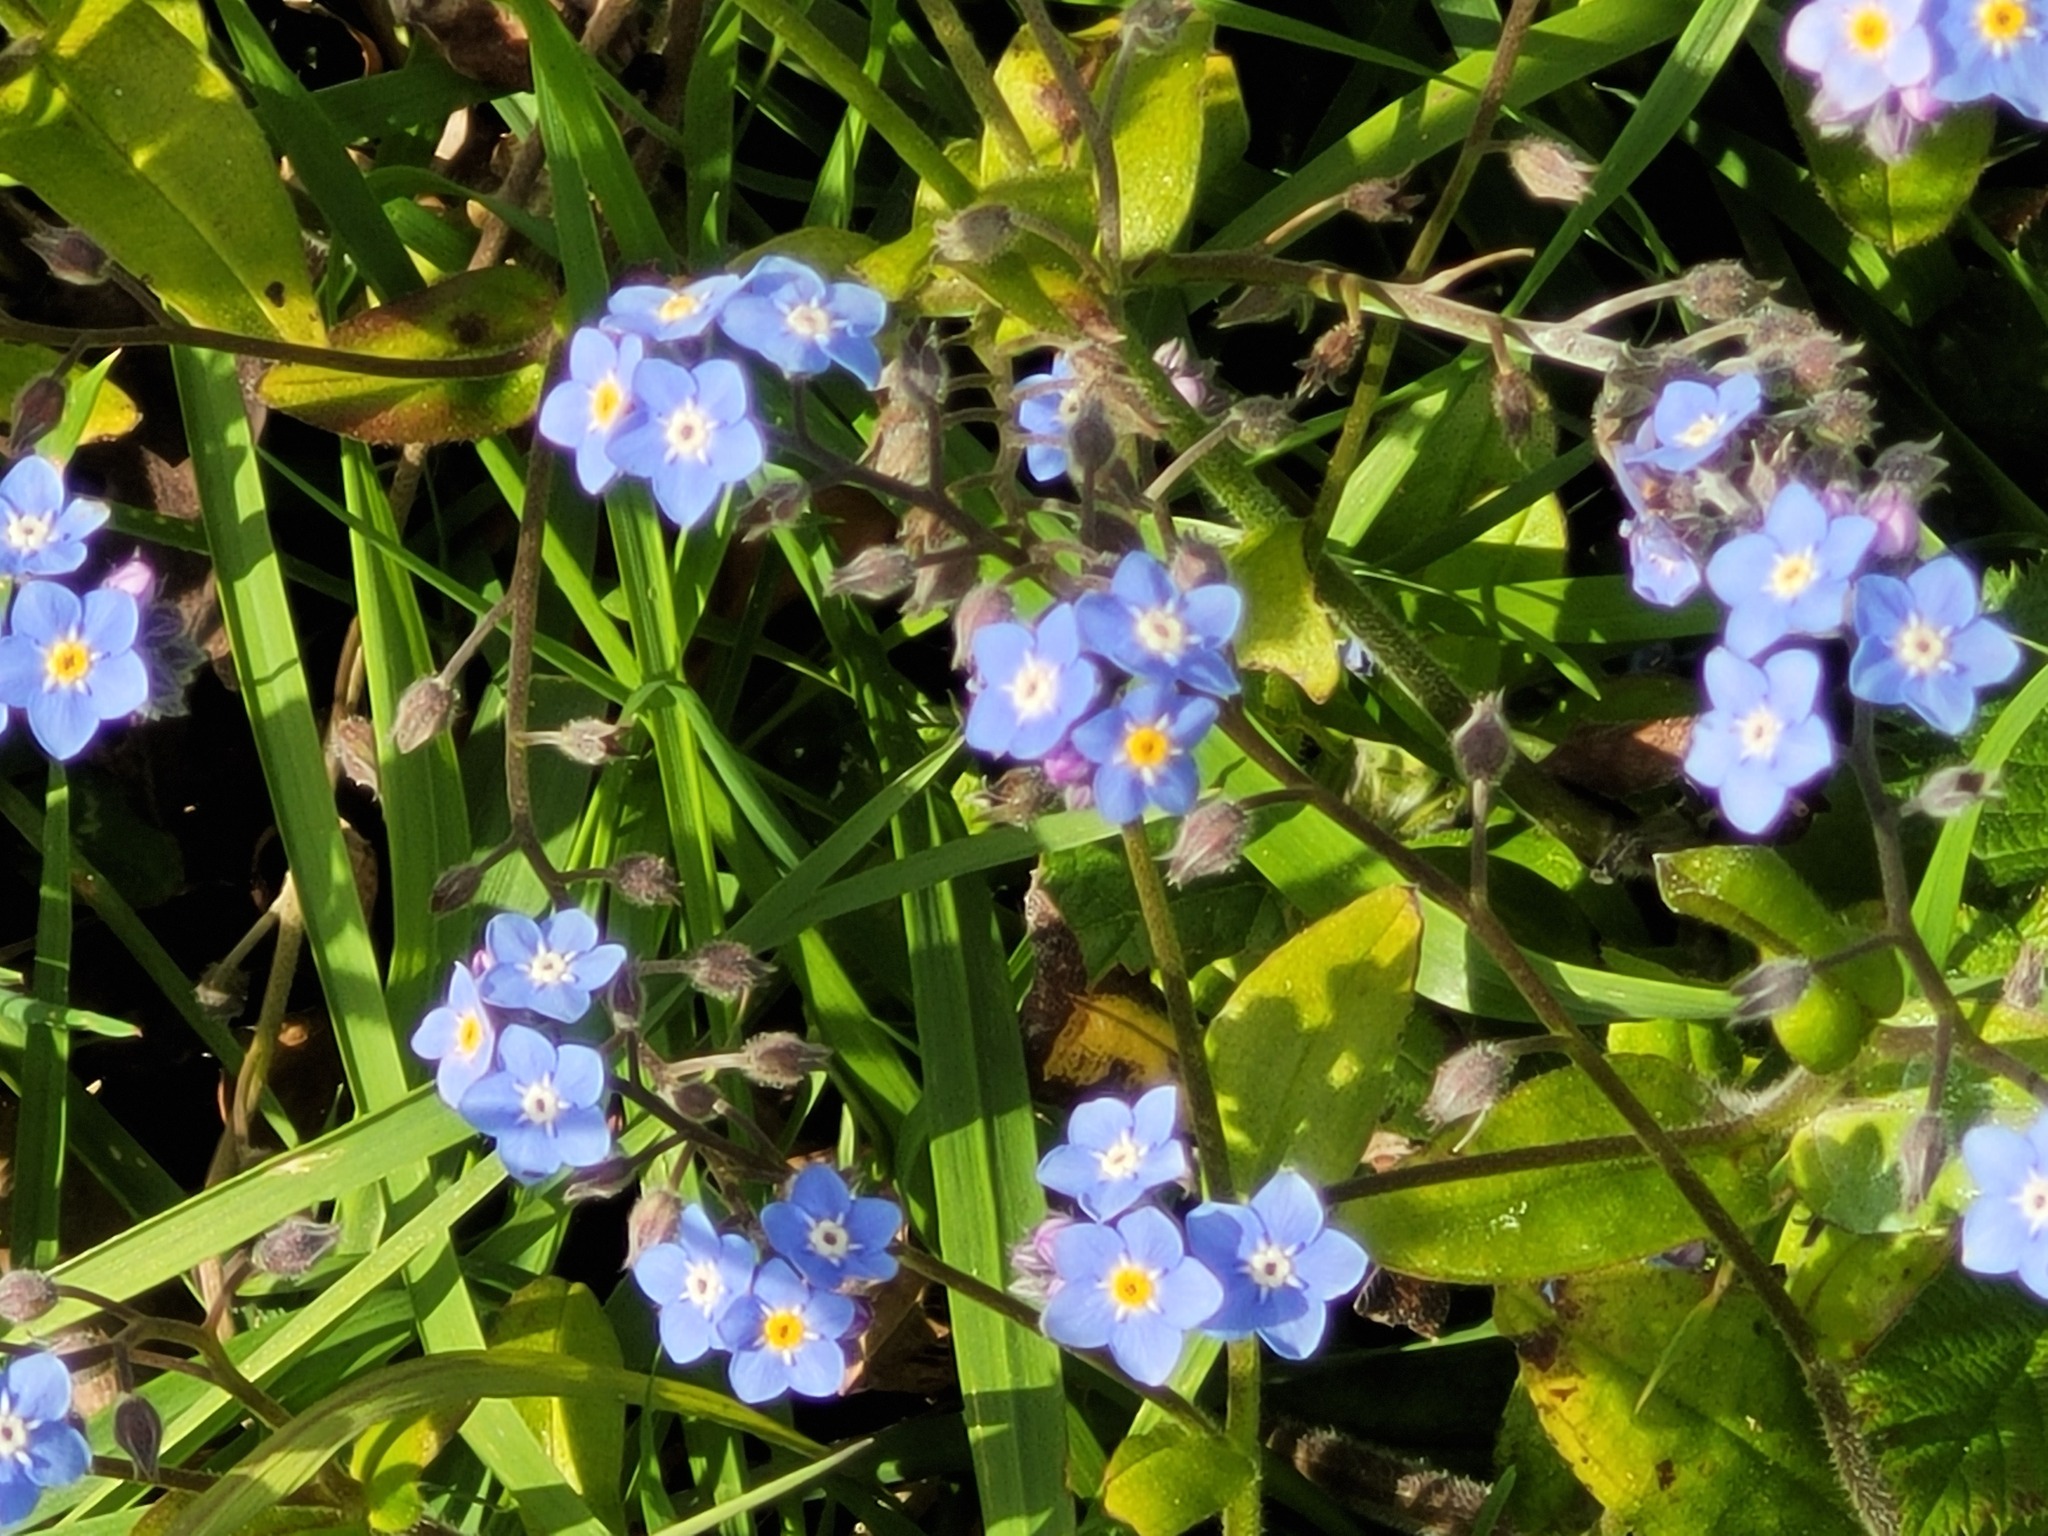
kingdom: Plantae
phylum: Tracheophyta
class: Magnoliopsida
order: Boraginales
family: Boraginaceae
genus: Myosotis
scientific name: Myosotis sylvatica
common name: Wood forget-me-not
